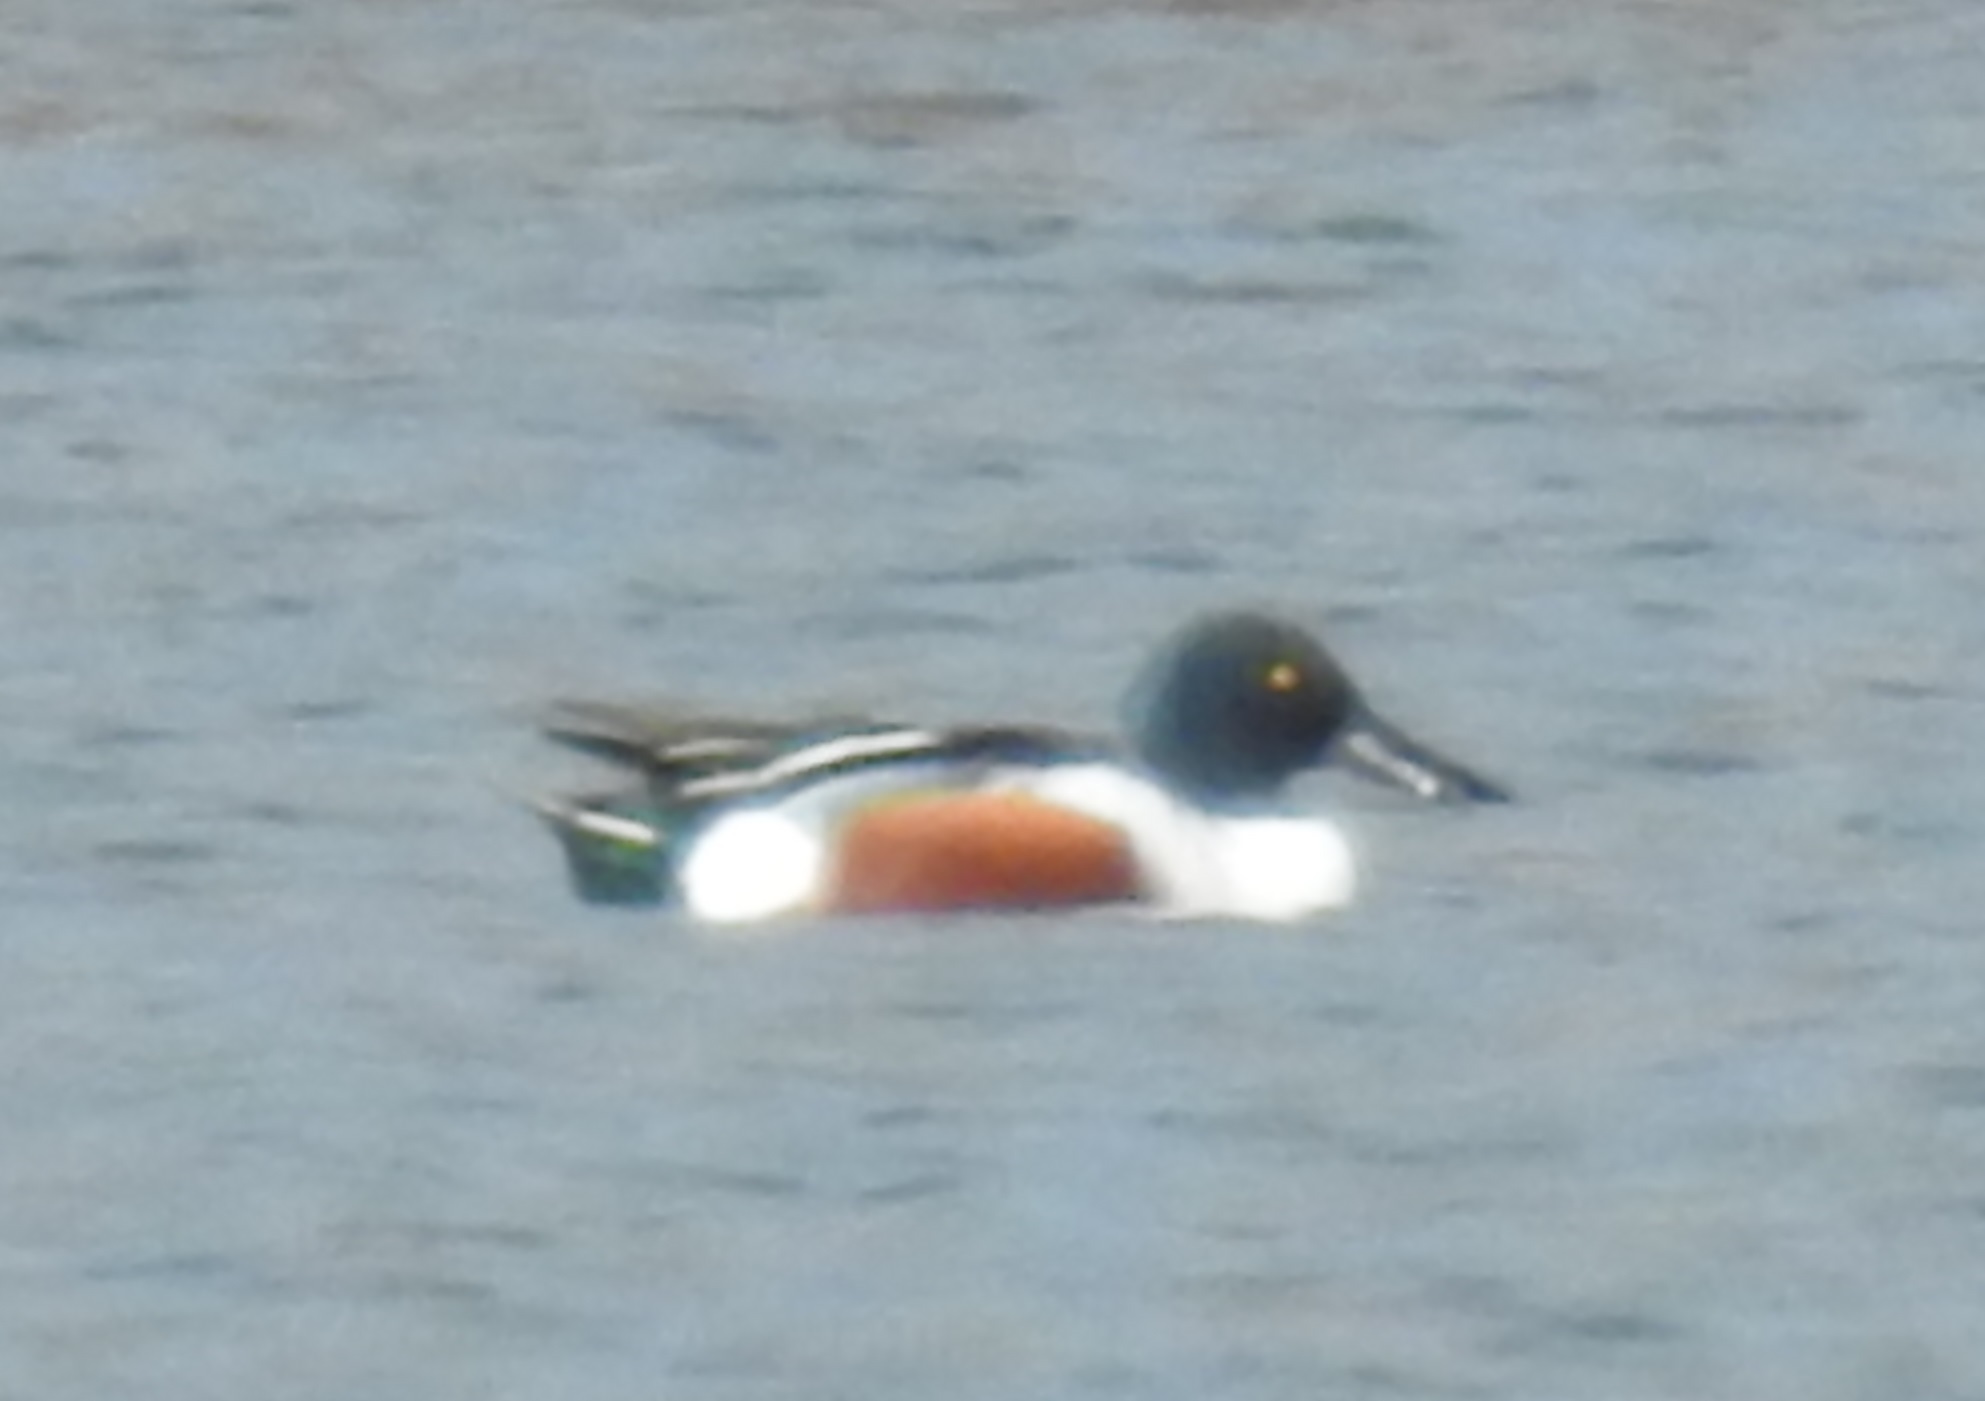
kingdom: Animalia
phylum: Chordata
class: Aves
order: Anseriformes
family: Anatidae
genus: Spatula
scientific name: Spatula clypeata
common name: Northern shoveler
